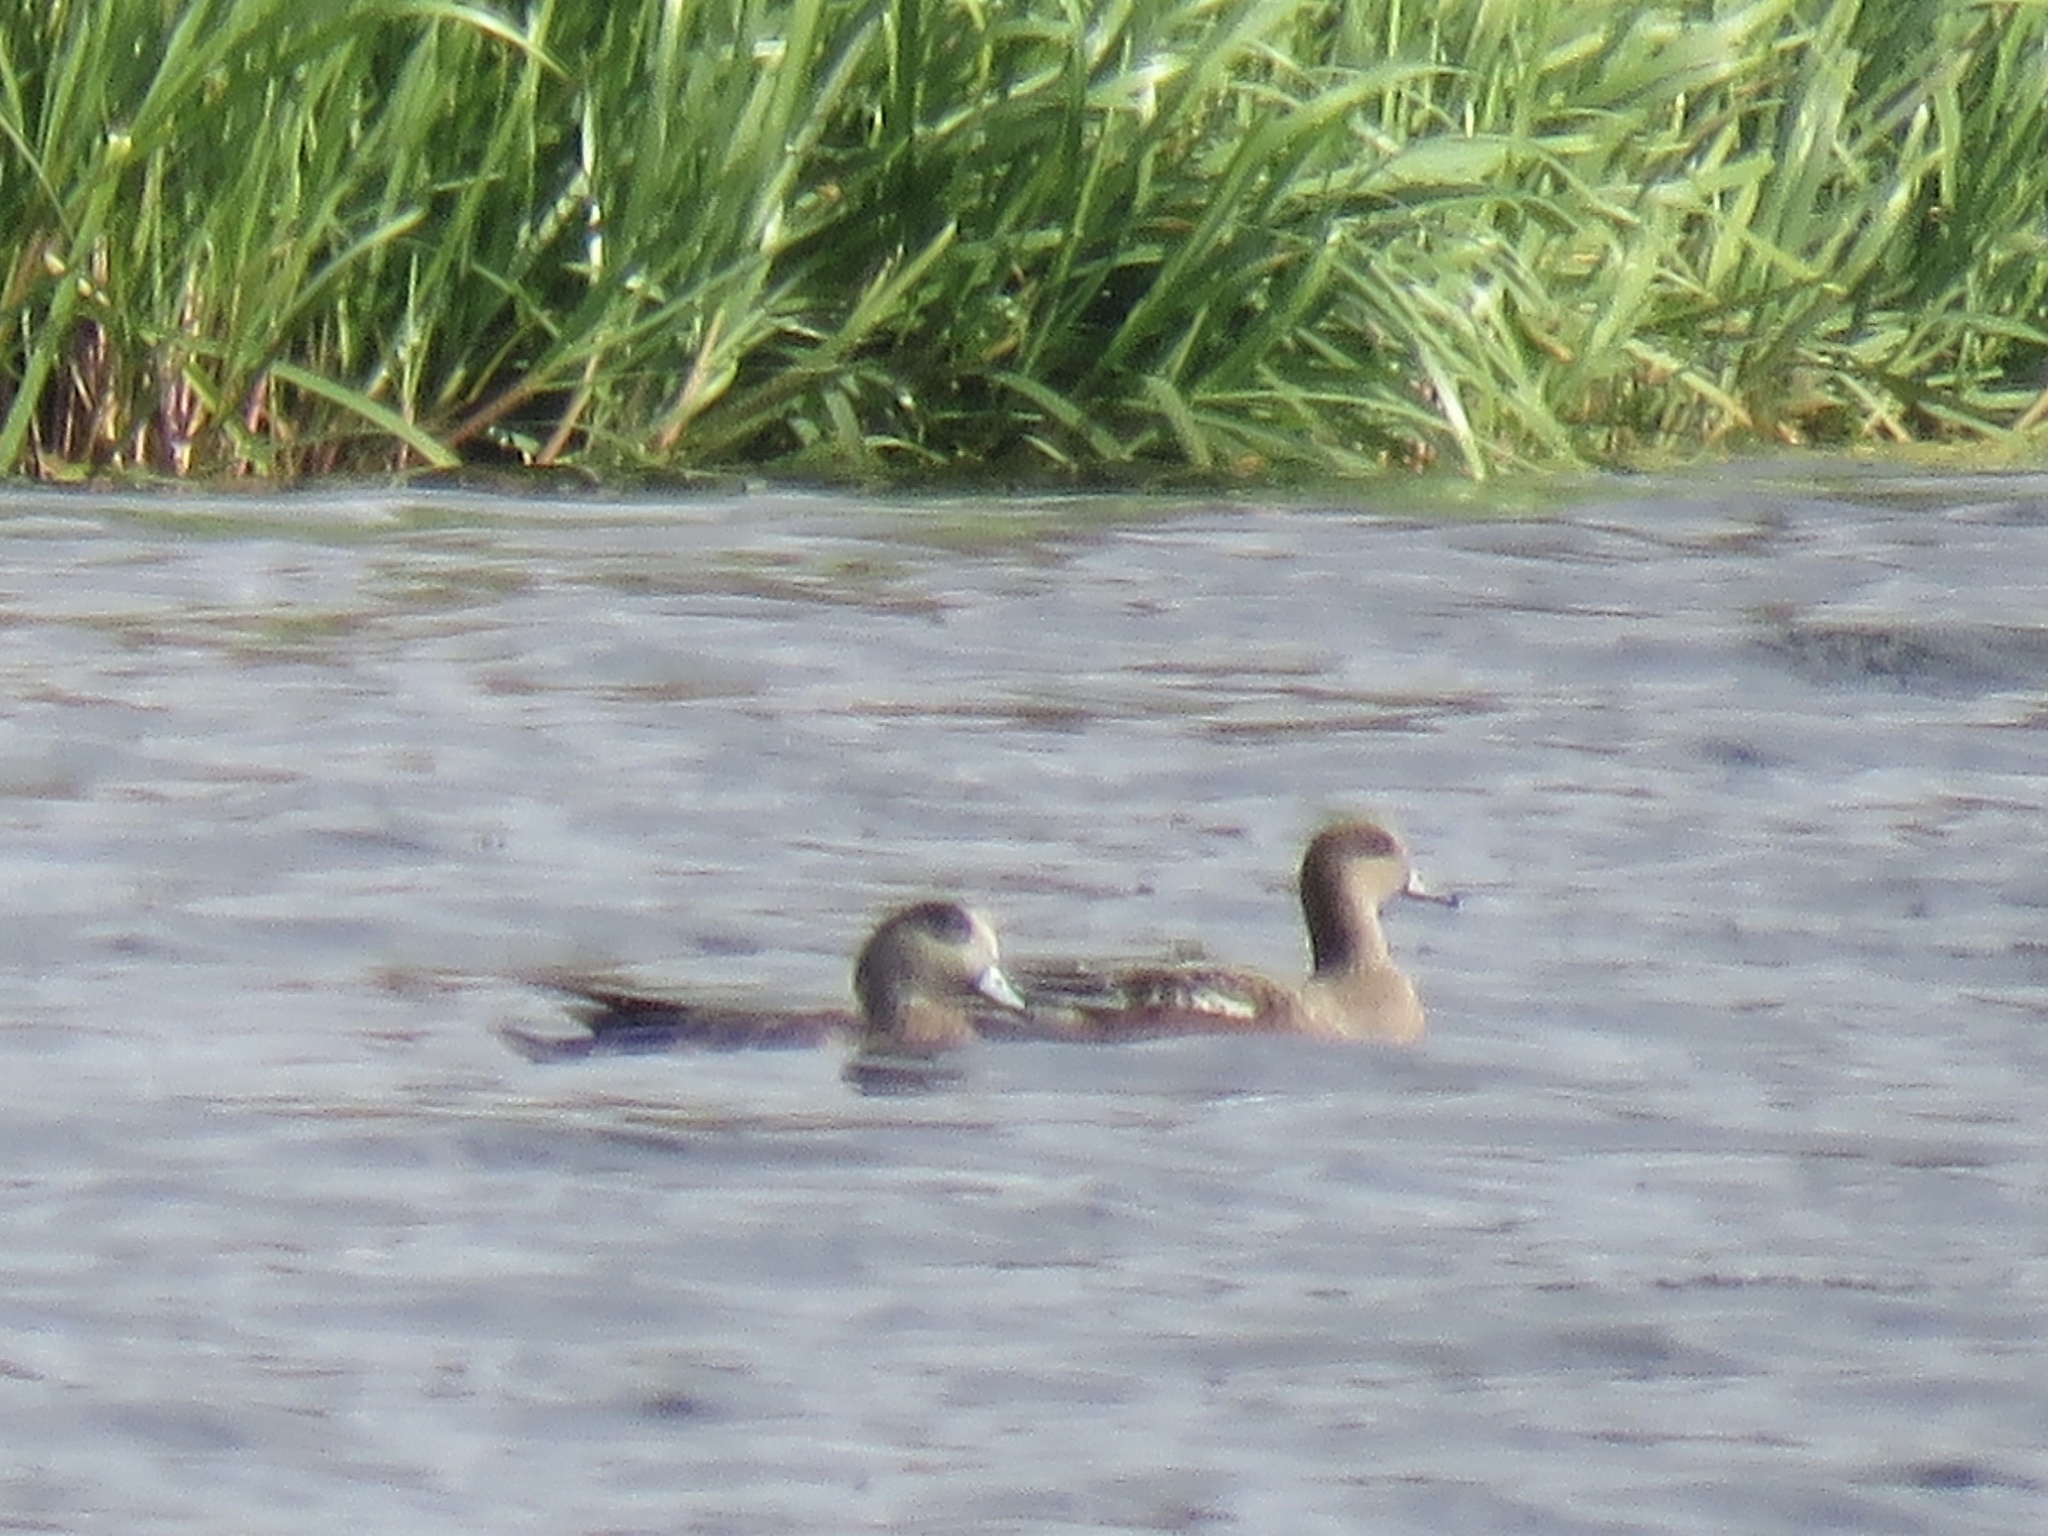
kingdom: Animalia
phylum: Chordata
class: Aves
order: Anseriformes
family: Anatidae
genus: Mareca
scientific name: Mareca americana
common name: American wigeon
